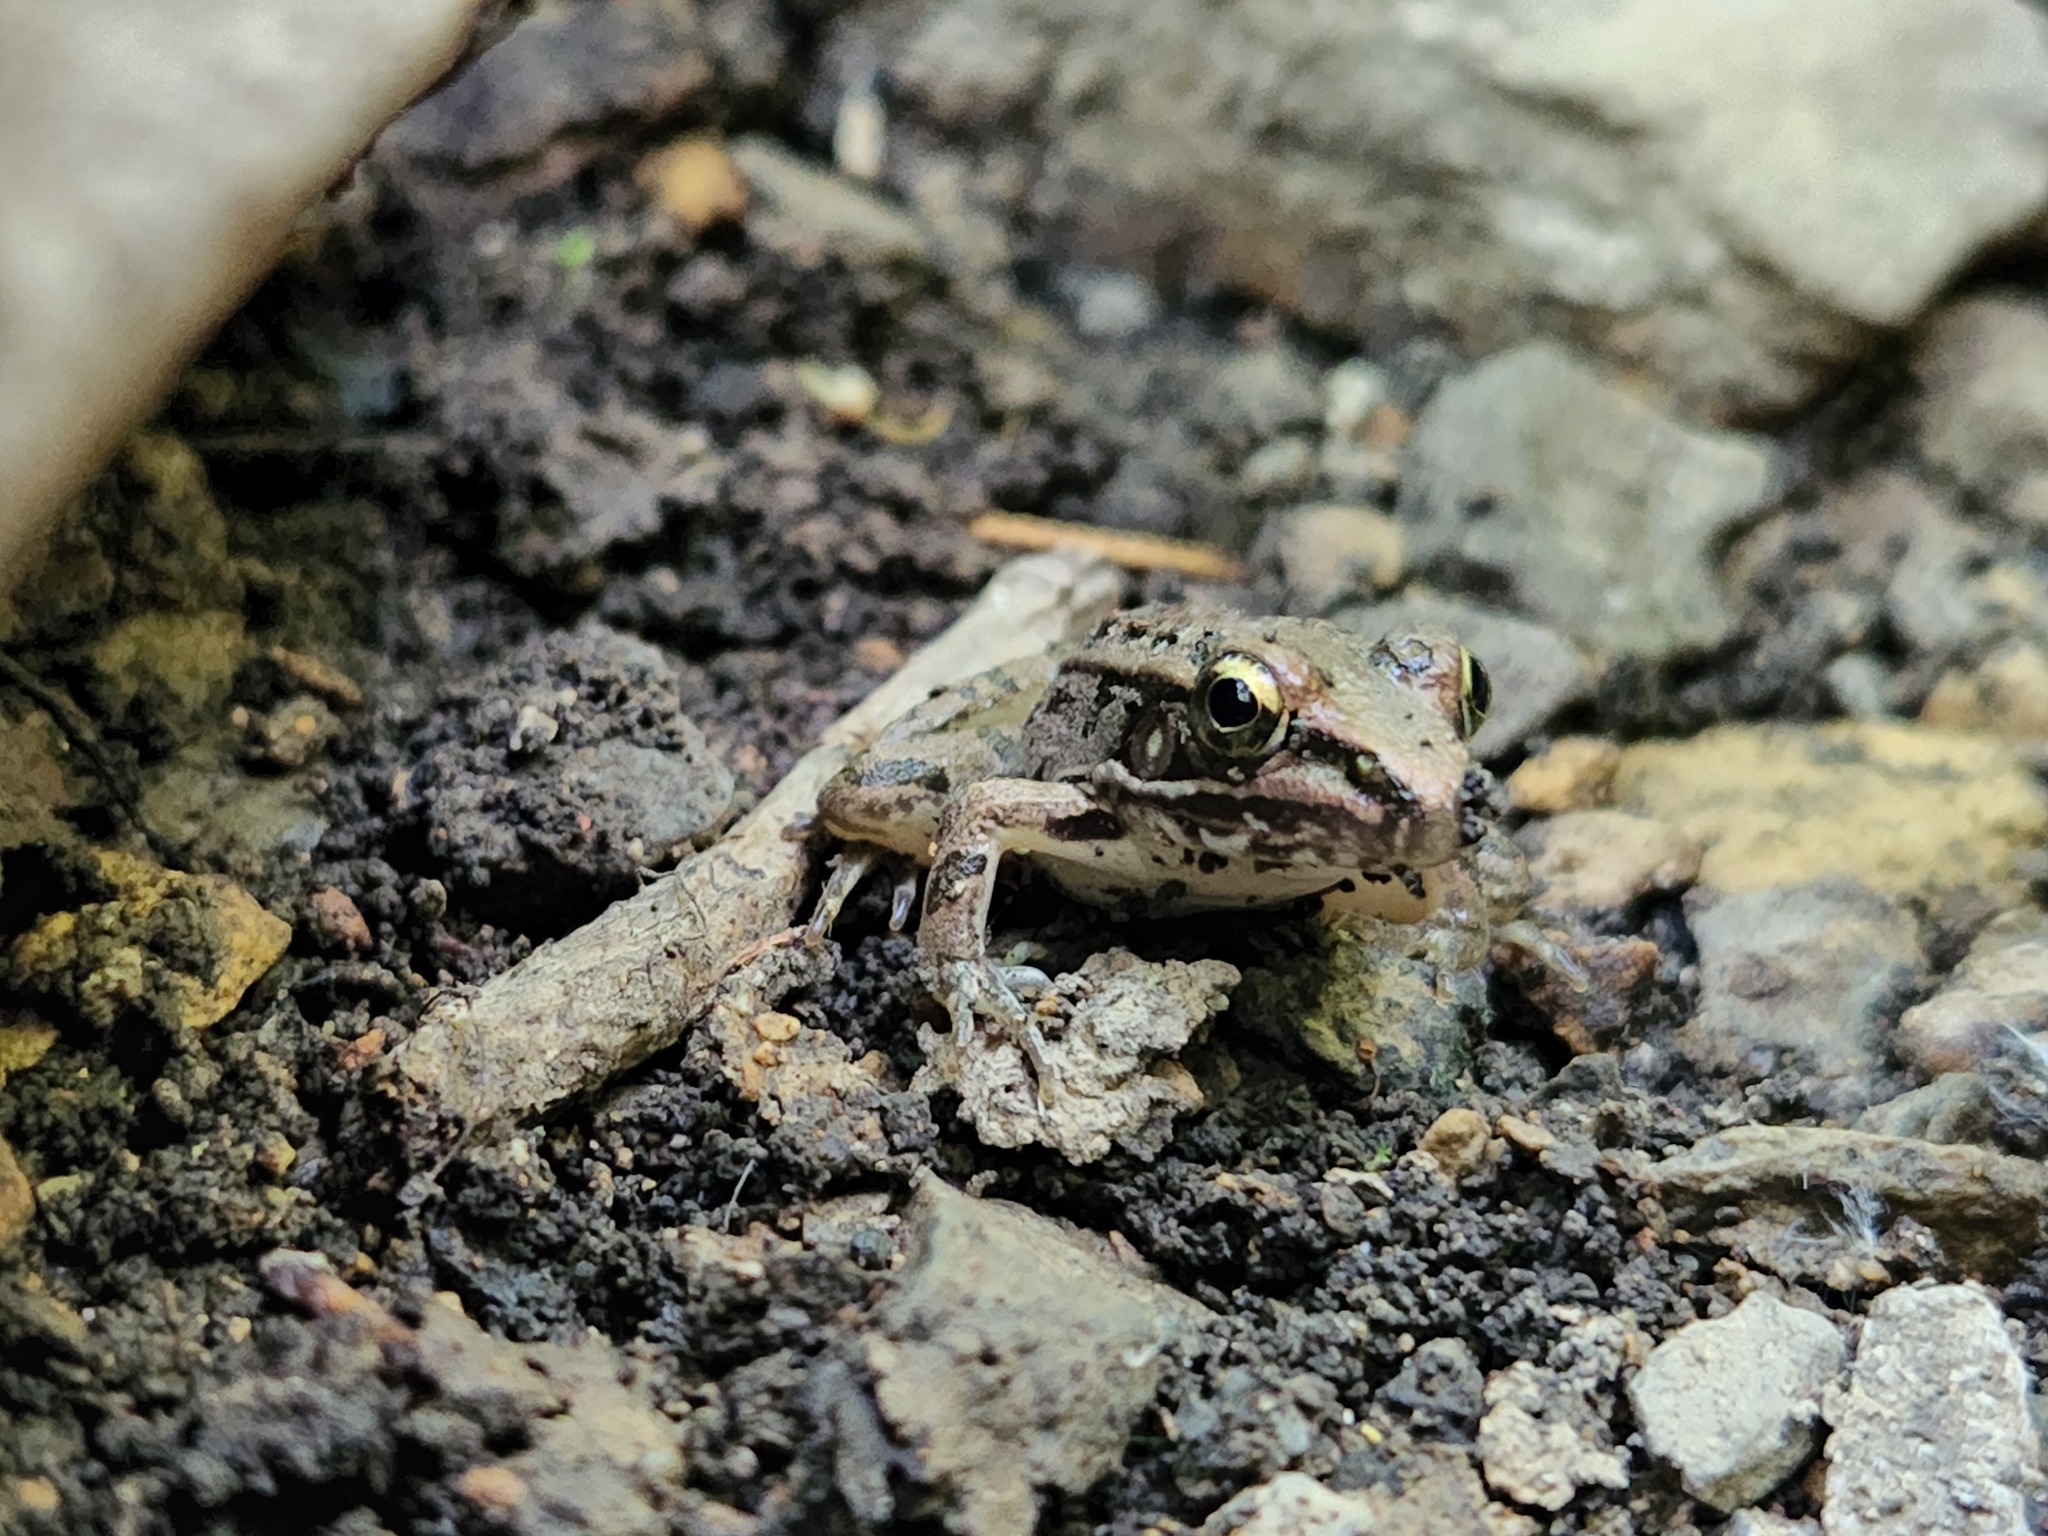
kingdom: Animalia
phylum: Chordata
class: Amphibia
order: Anura
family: Ranidae
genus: Lithobates
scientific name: Lithobates sphenocephalus
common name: Southern leopard frog
